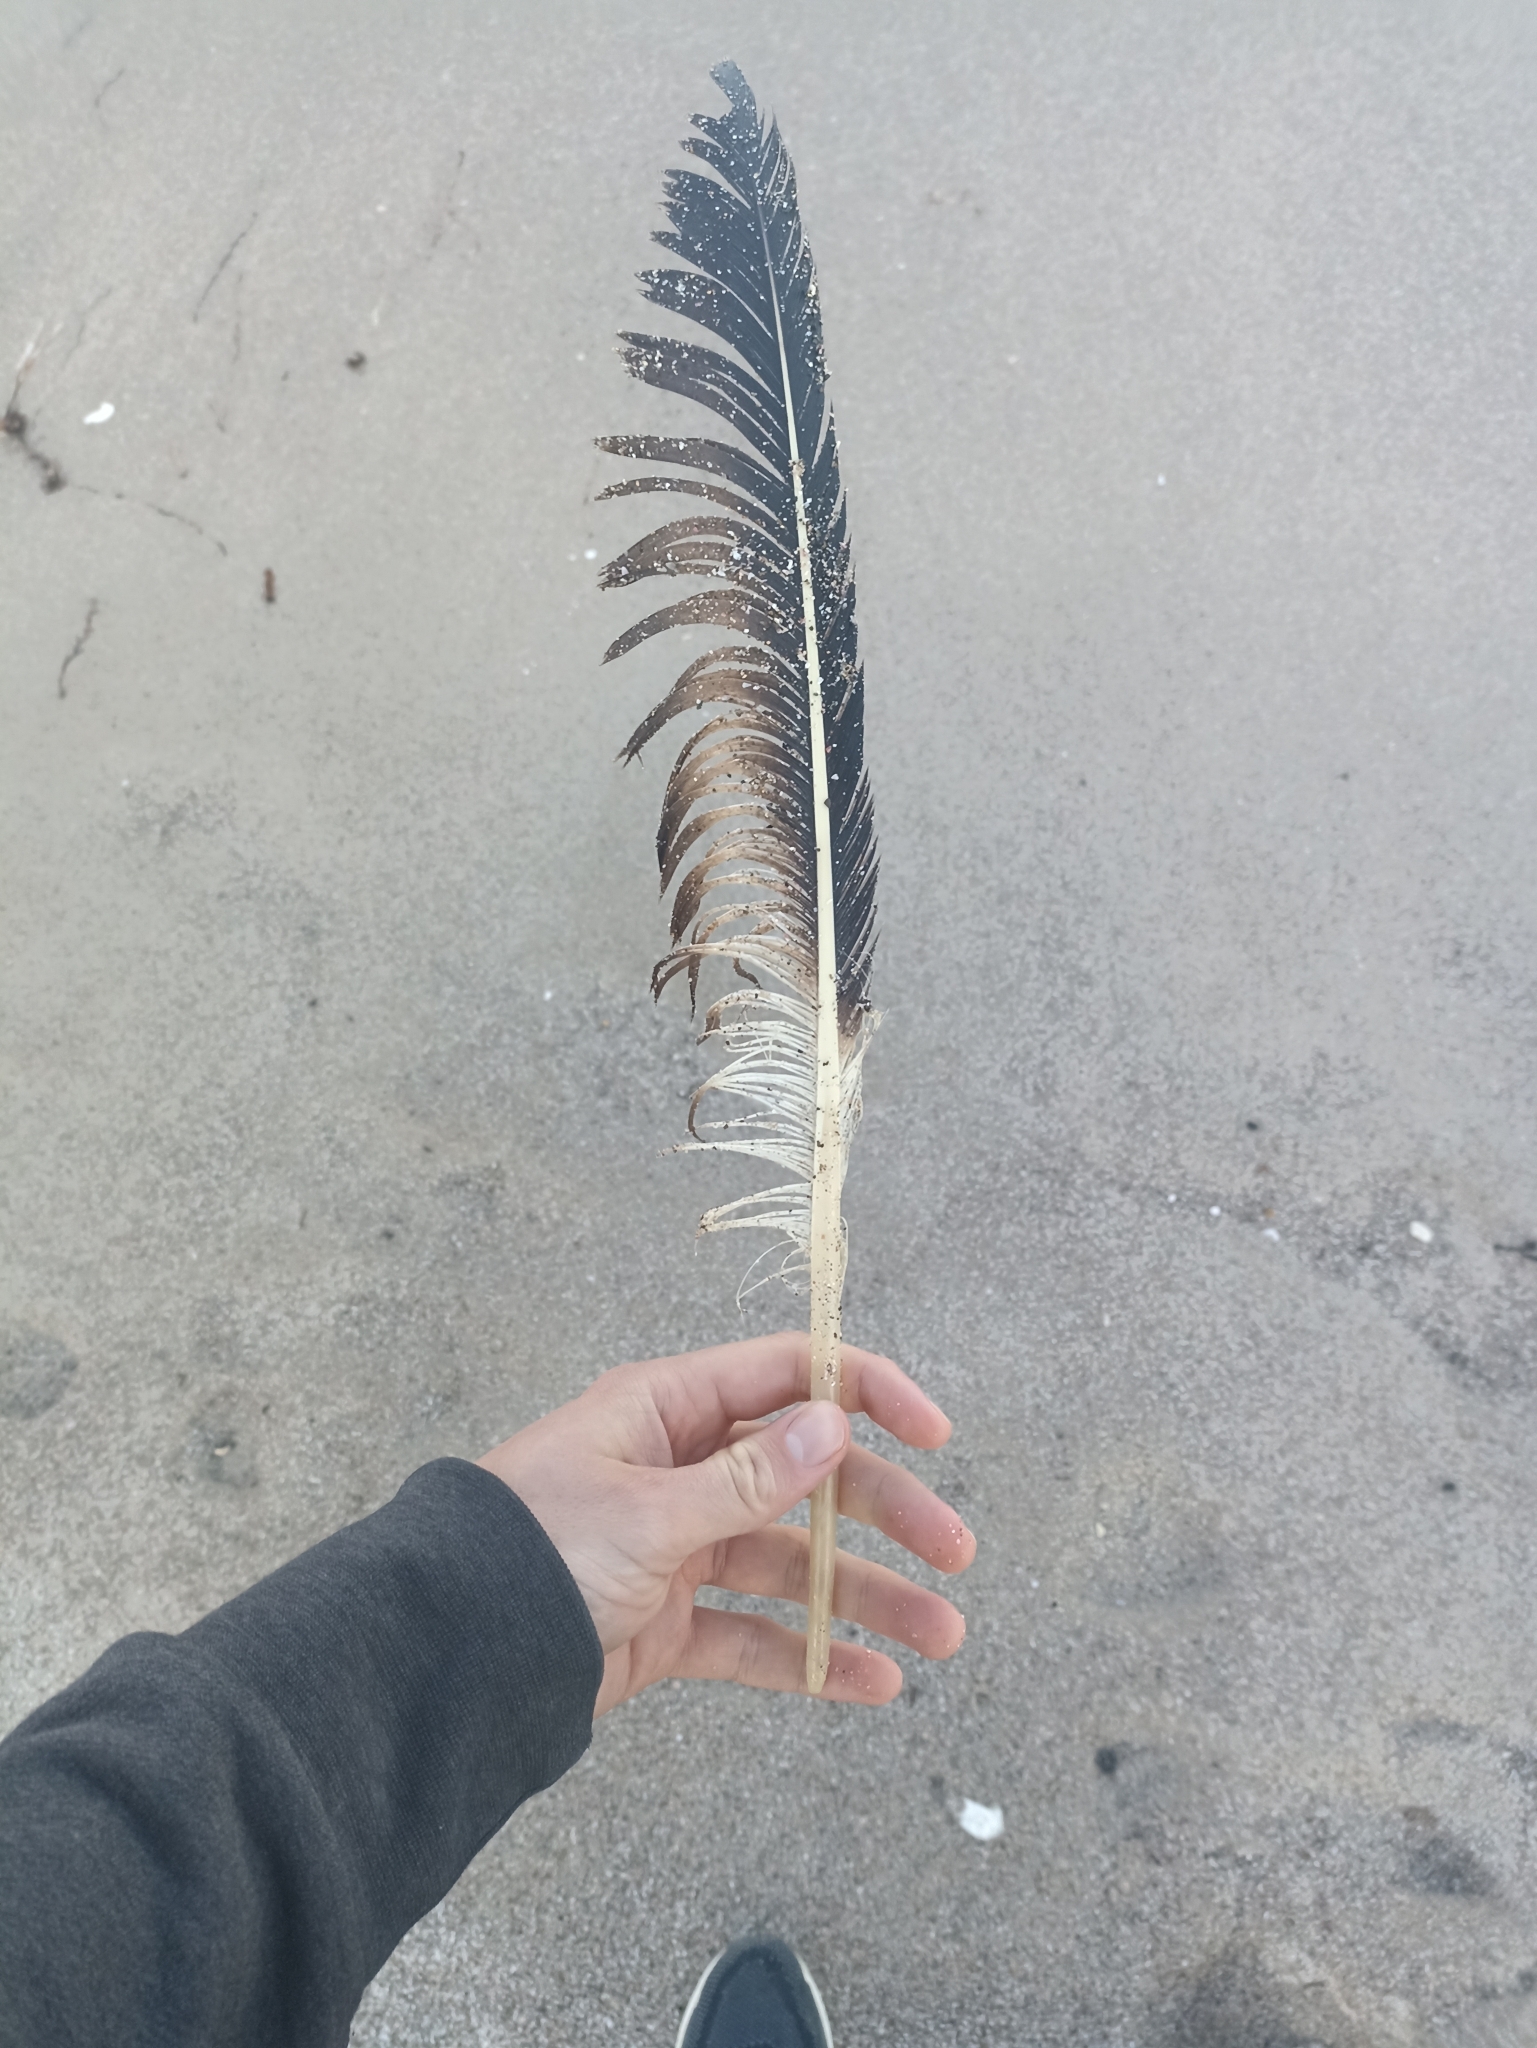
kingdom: Animalia
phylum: Chordata
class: Aves
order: Charadriiformes
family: Laridae
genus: Larus
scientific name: Larus dominicanus
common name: Kelp gull
